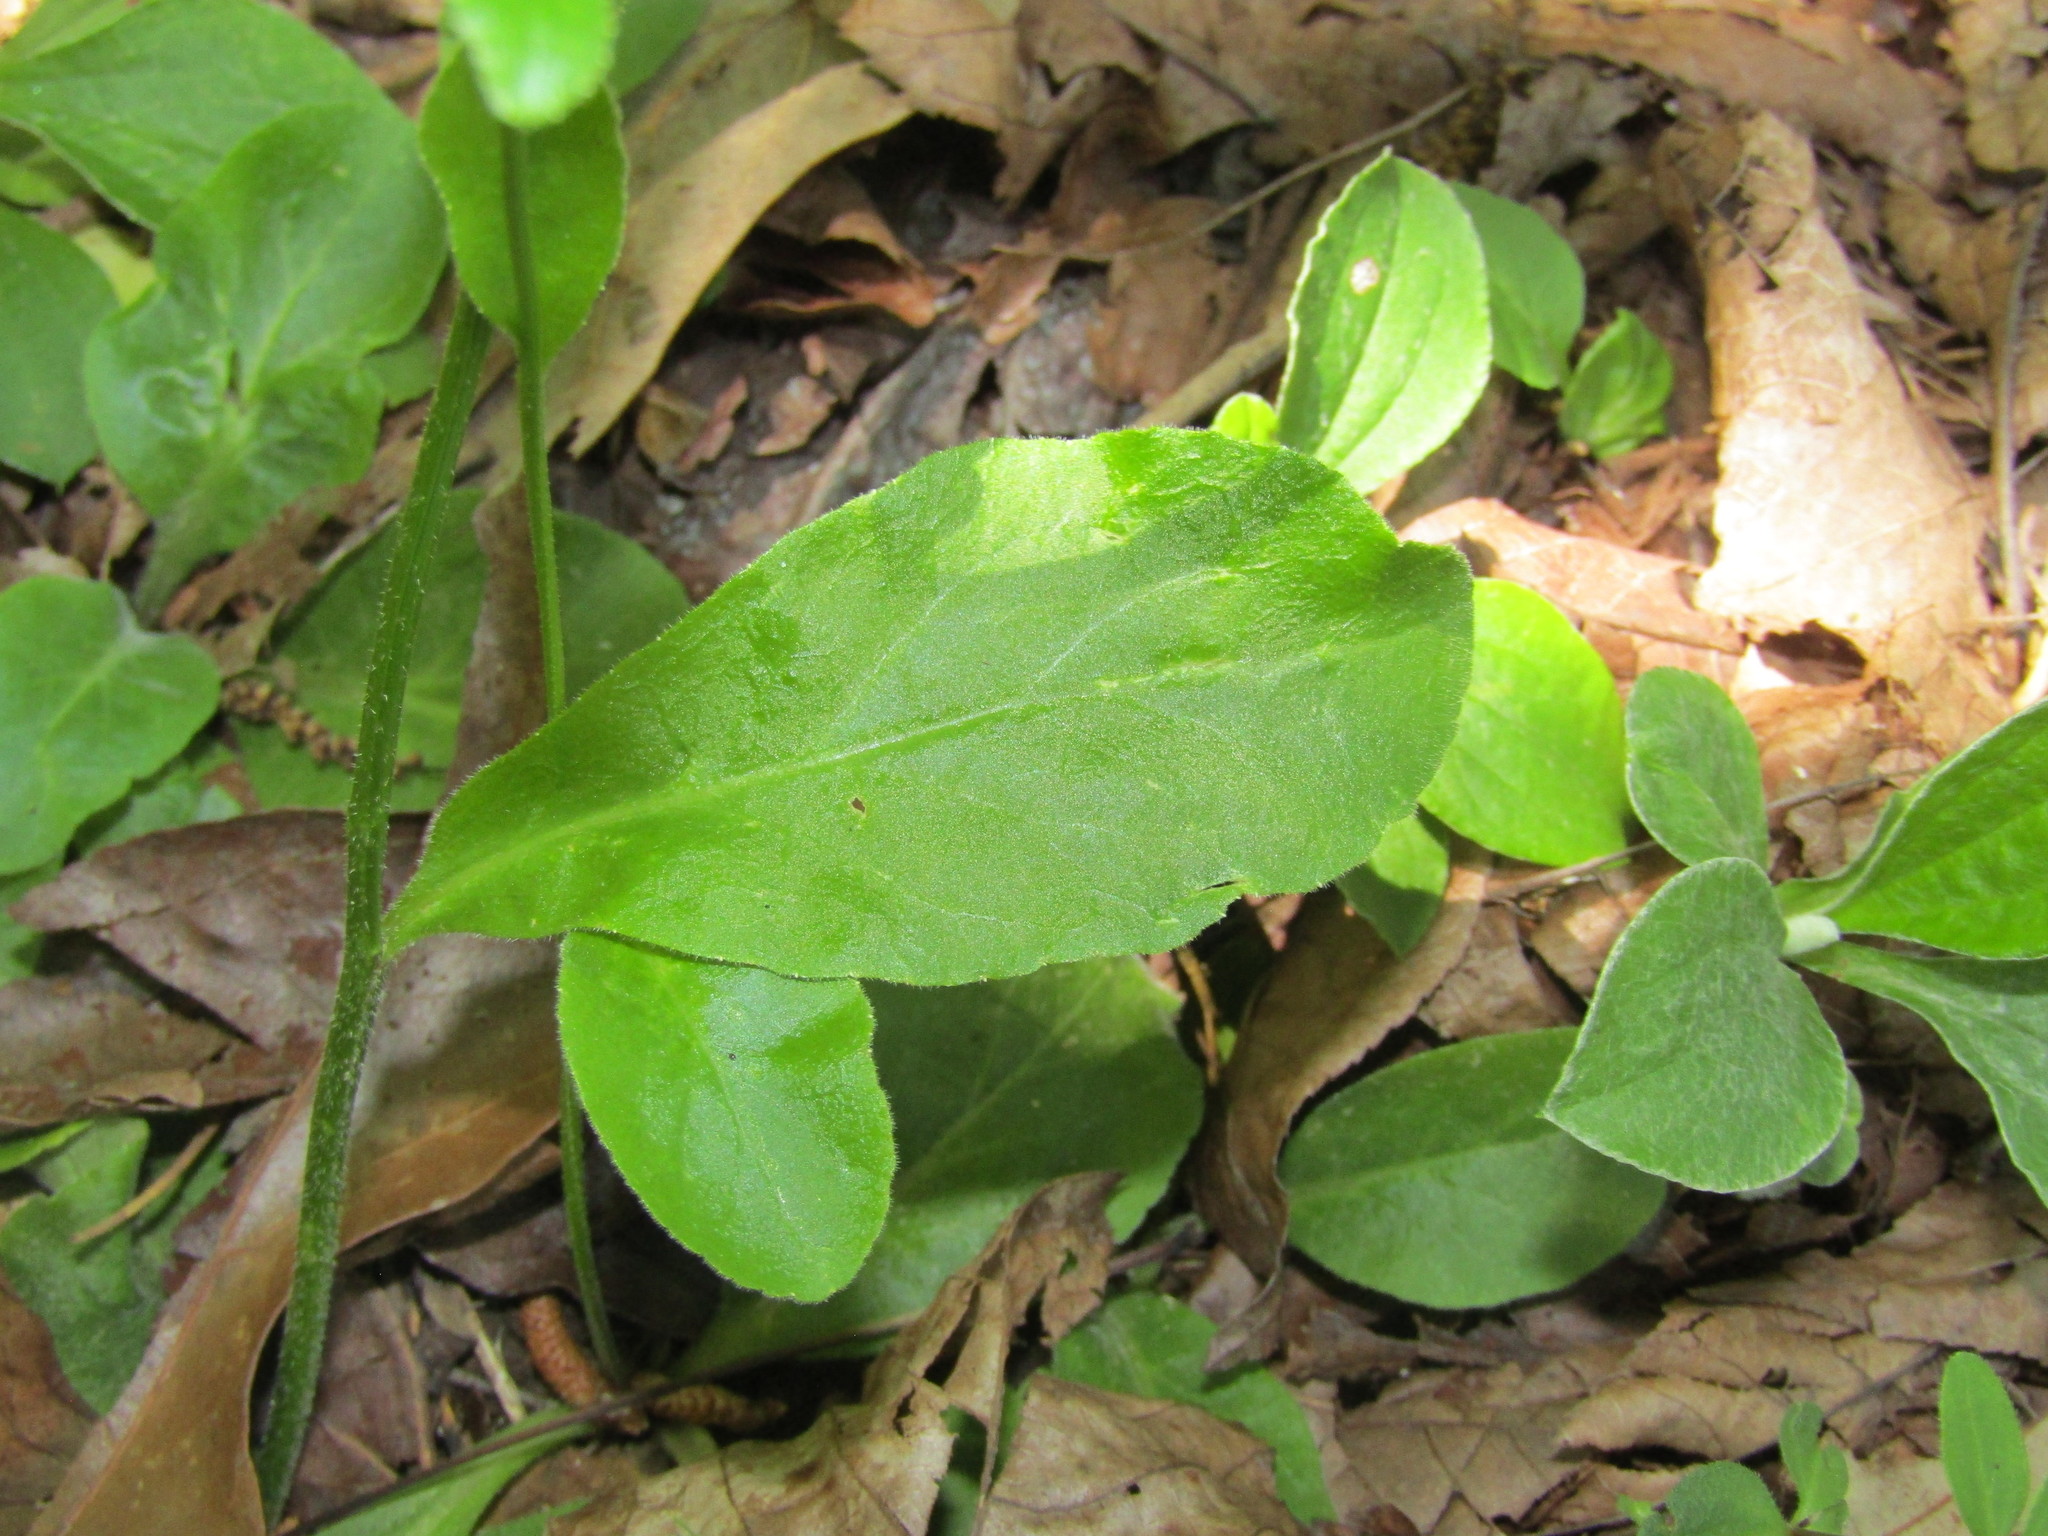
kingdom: Plantae
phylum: Tracheophyta
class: Magnoliopsida
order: Asterales
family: Campanulaceae
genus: Lobelia
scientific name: Lobelia spicata
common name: Pale-spike lobelia
